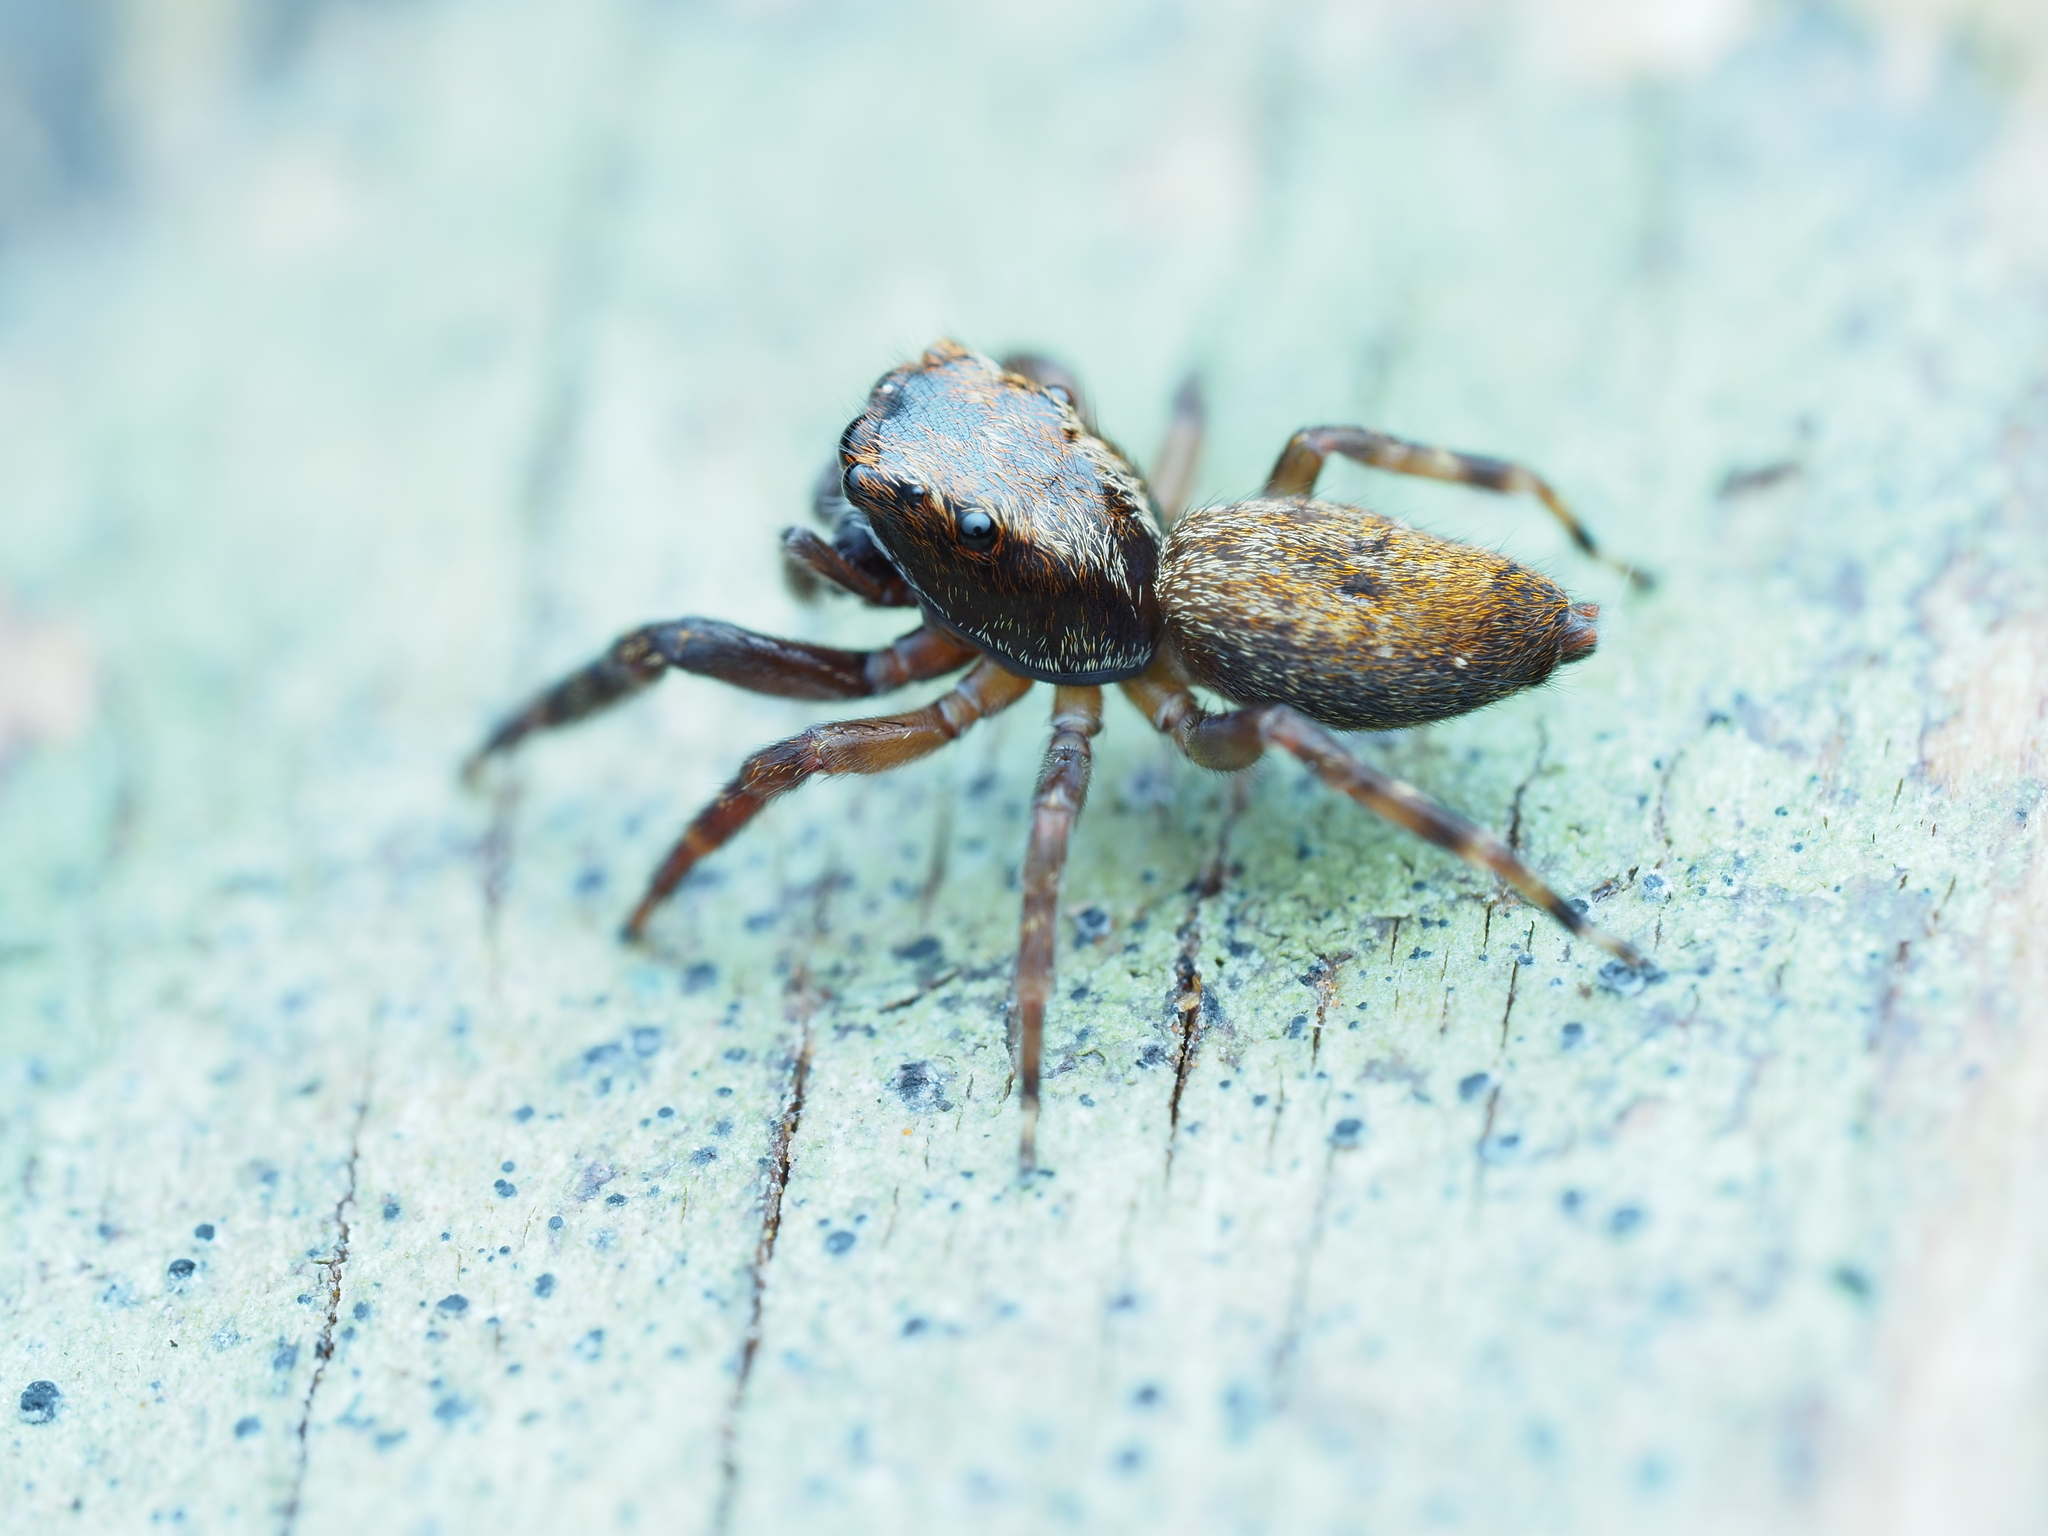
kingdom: Animalia
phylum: Arthropoda
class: Arachnida
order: Araneae
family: Salticidae
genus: Trite
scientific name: Trite auricoma
